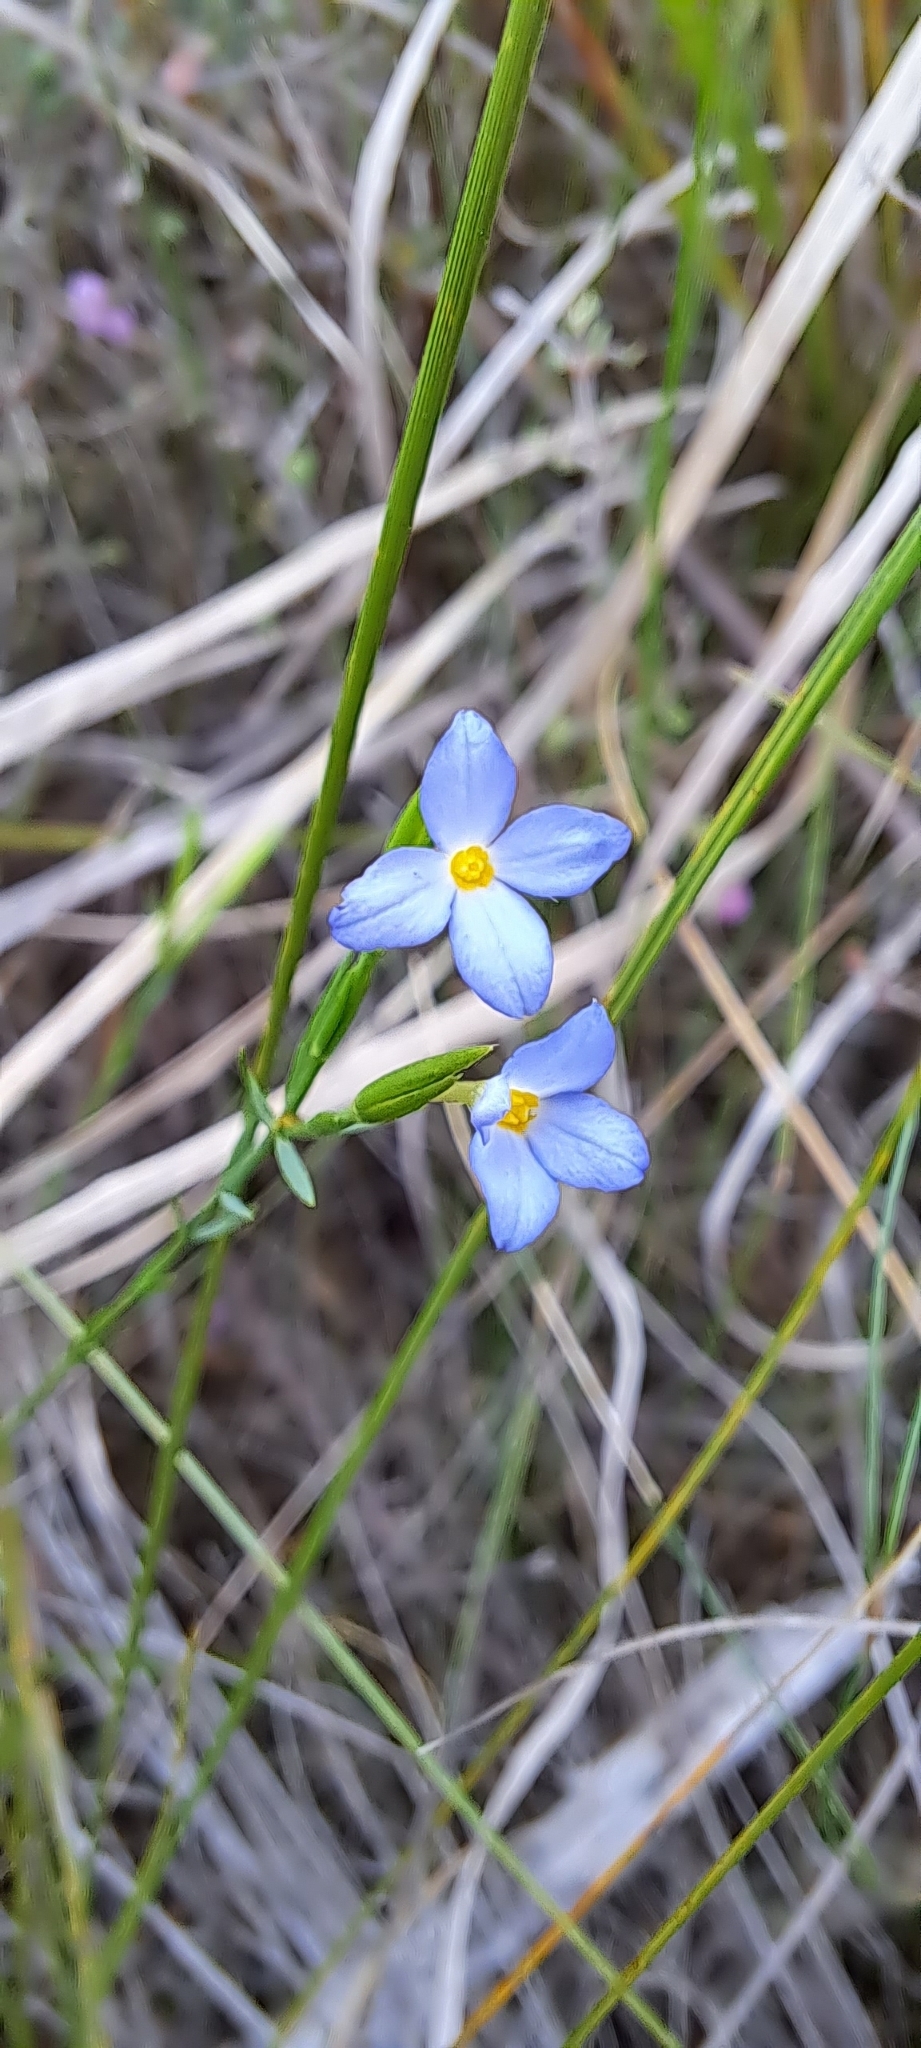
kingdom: Plantae
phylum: Tracheophyta
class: Magnoliopsida
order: Malvales
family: Thymelaeaceae
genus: Gnidia
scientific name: Gnidia linoides
